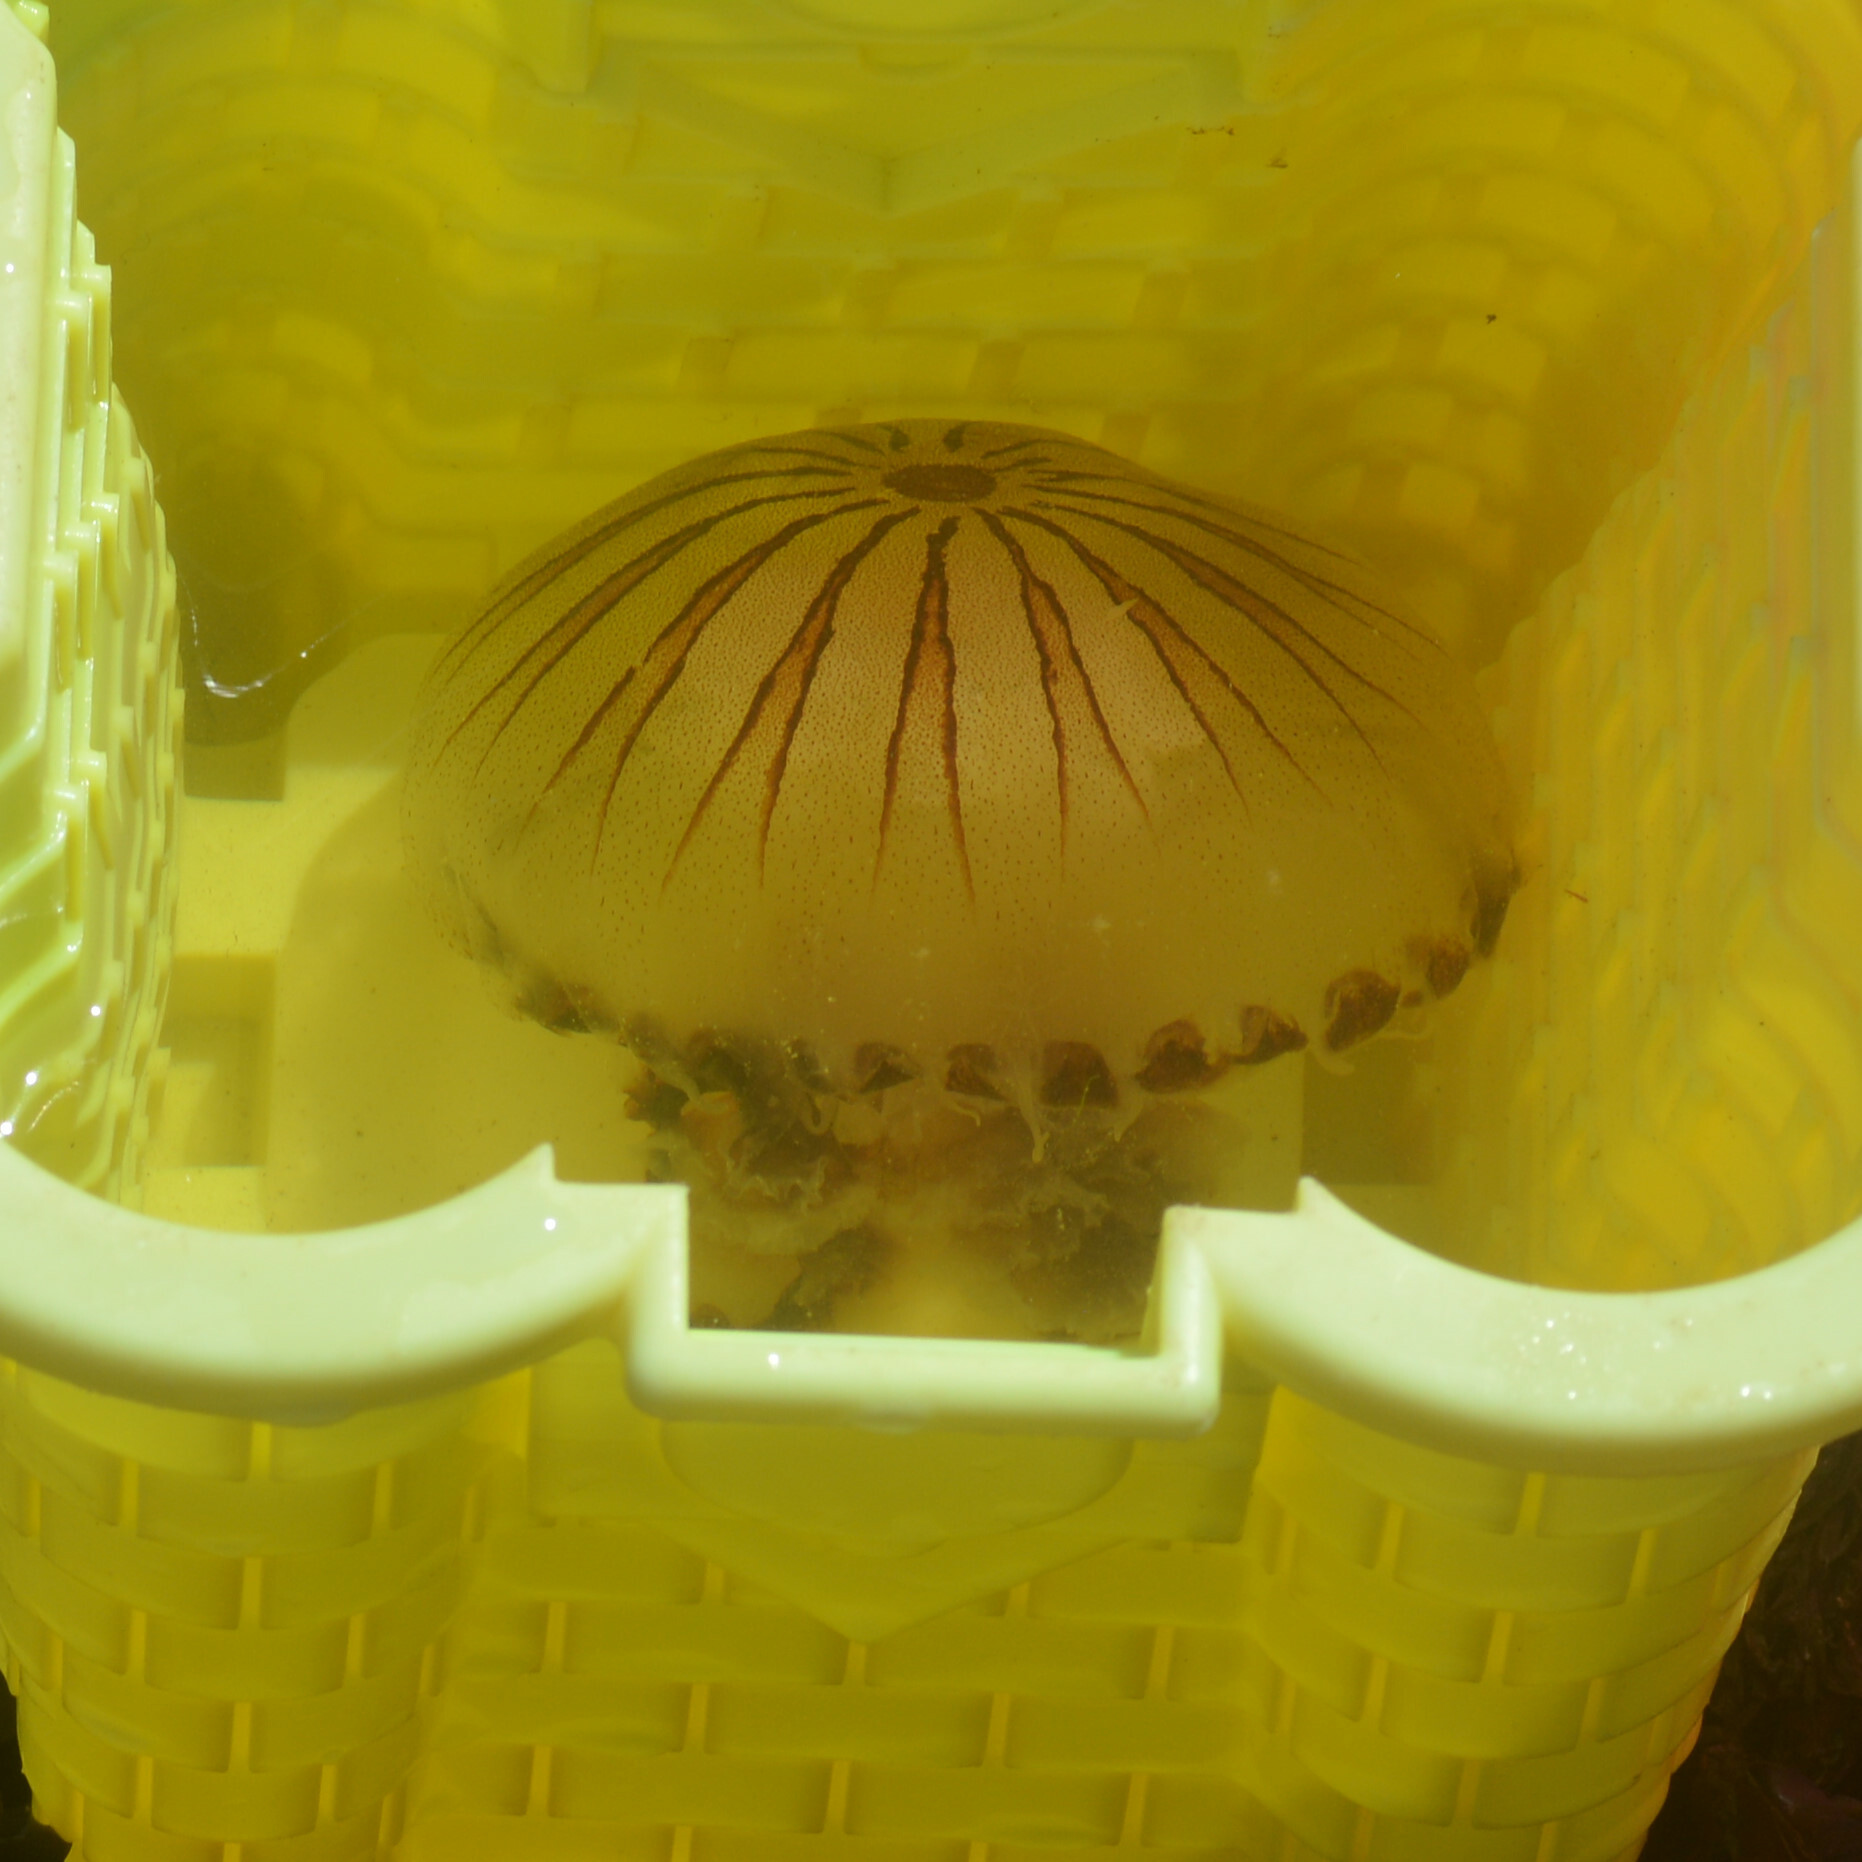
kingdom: Animalia
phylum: Cnidaria
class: Scyphozoa
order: Semaeostomeae
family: Pelagiidae
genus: Chrysaora
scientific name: Chrysaora hysoscella
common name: Compass jellyfish
